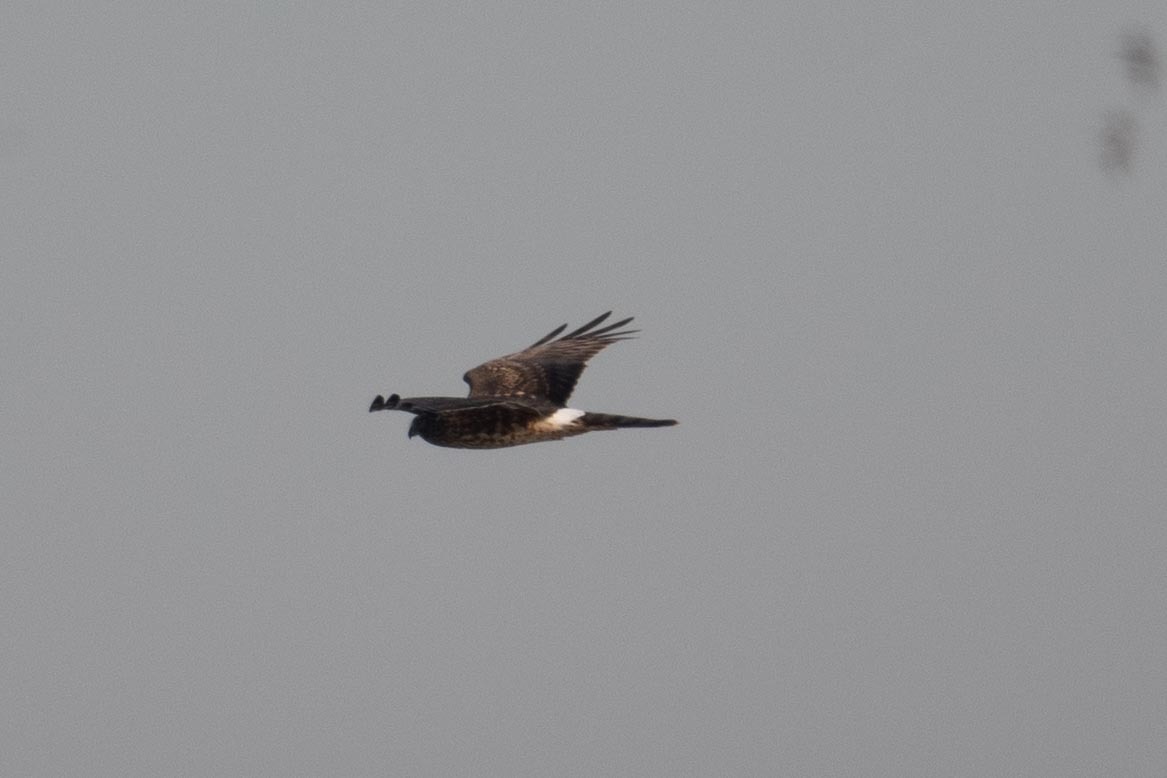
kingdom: Animalia
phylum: Chordata
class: Aves
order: Accipitriformes
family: Accipitridae
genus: Circus
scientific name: Circus cyaneus
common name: Hen harrier
